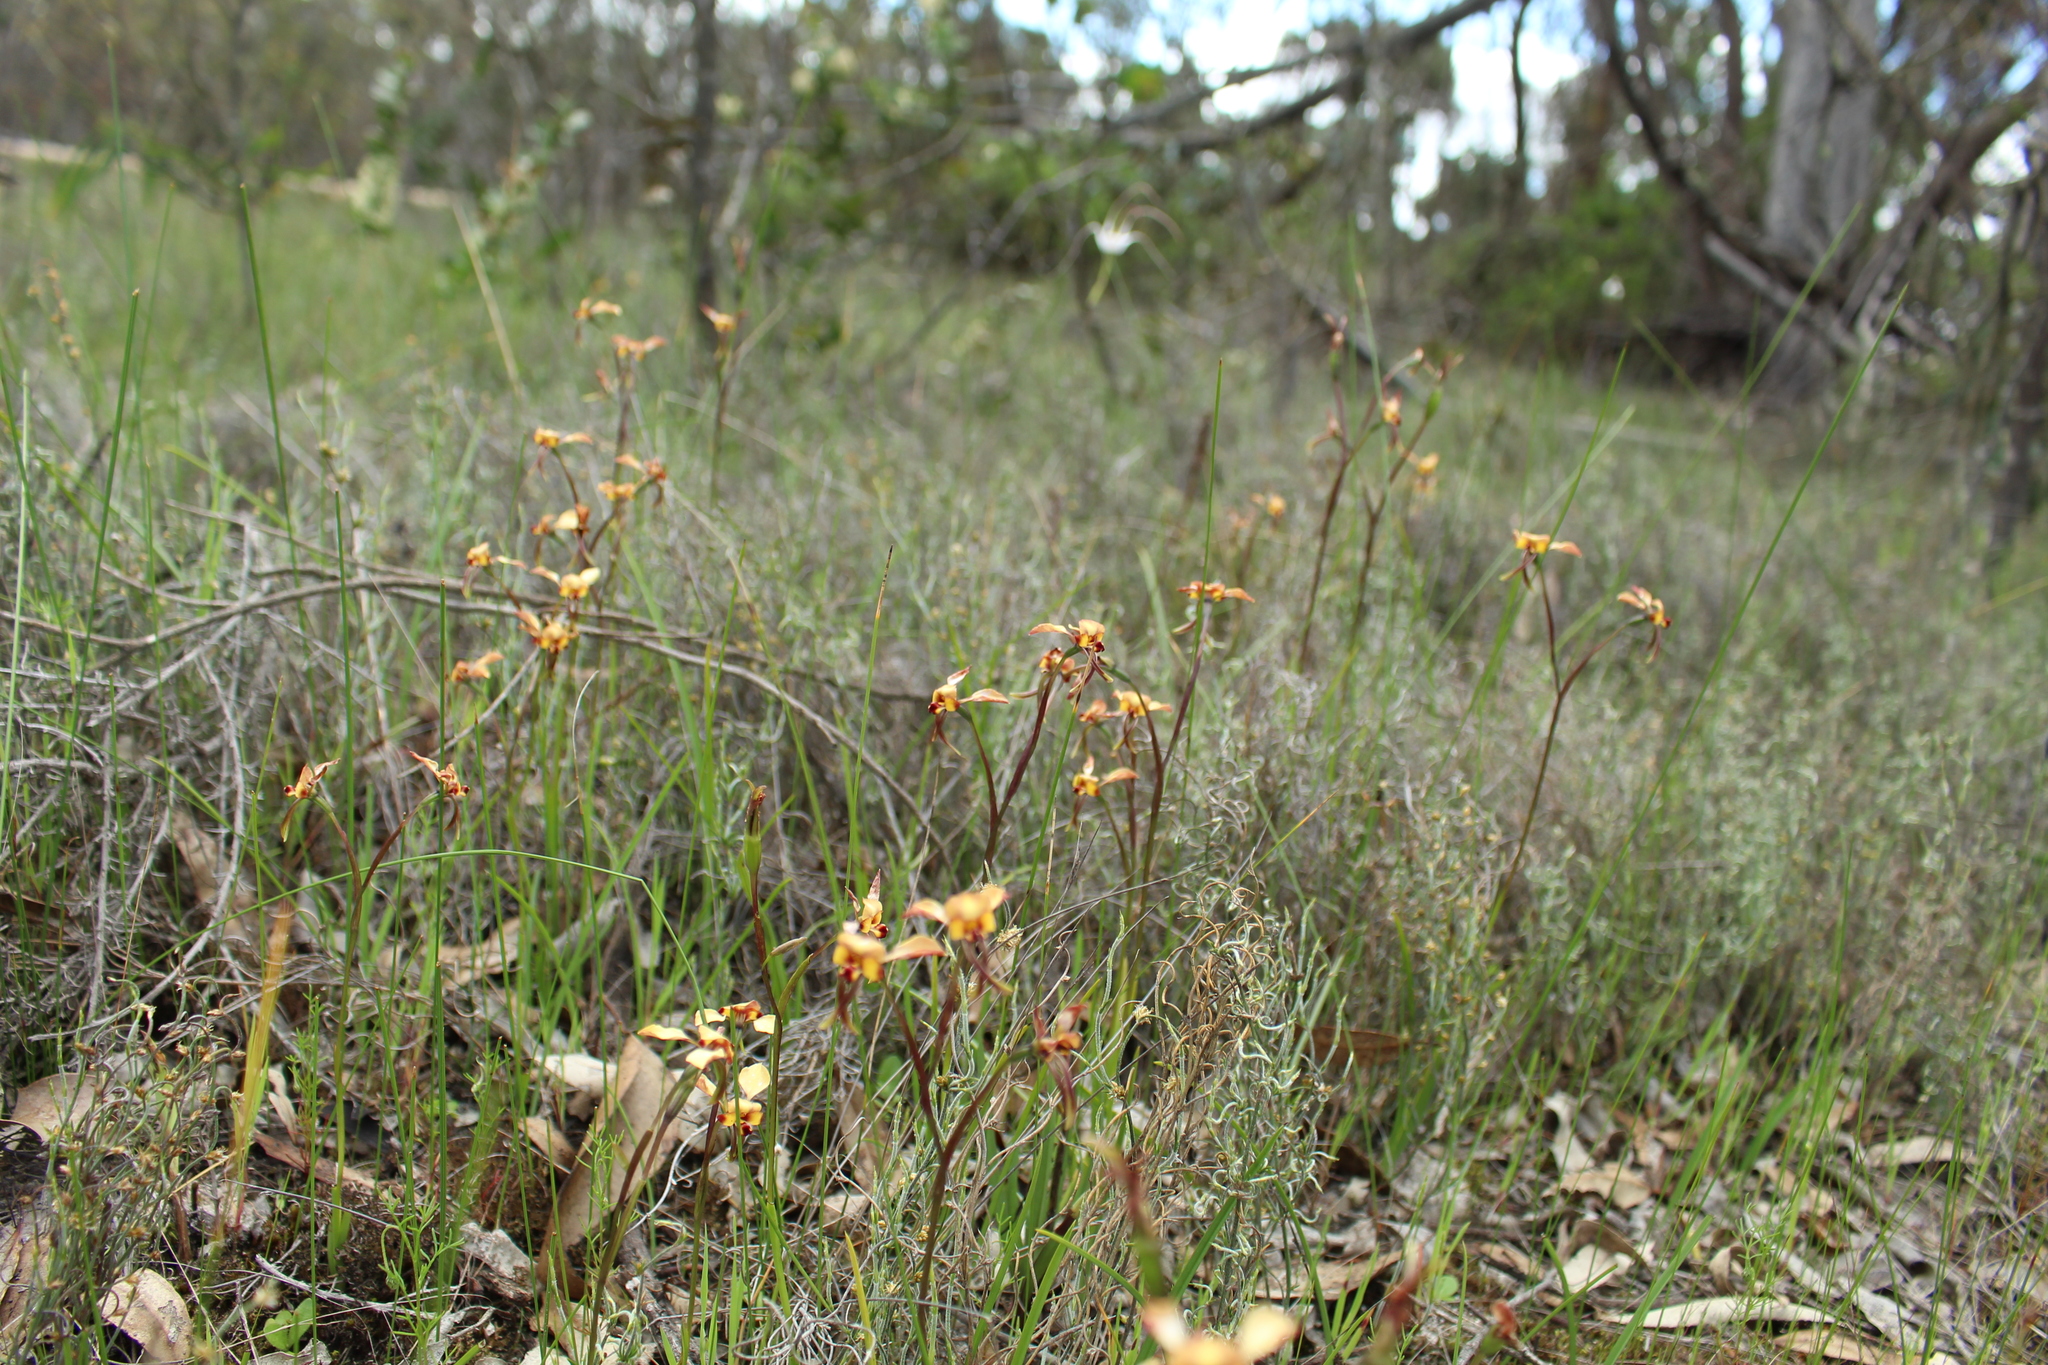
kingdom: Plantae
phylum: Tracheophyta
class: Liliopsida
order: Asparagales
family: Orchidaceae
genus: Diuris
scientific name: Diuris porrifolia
